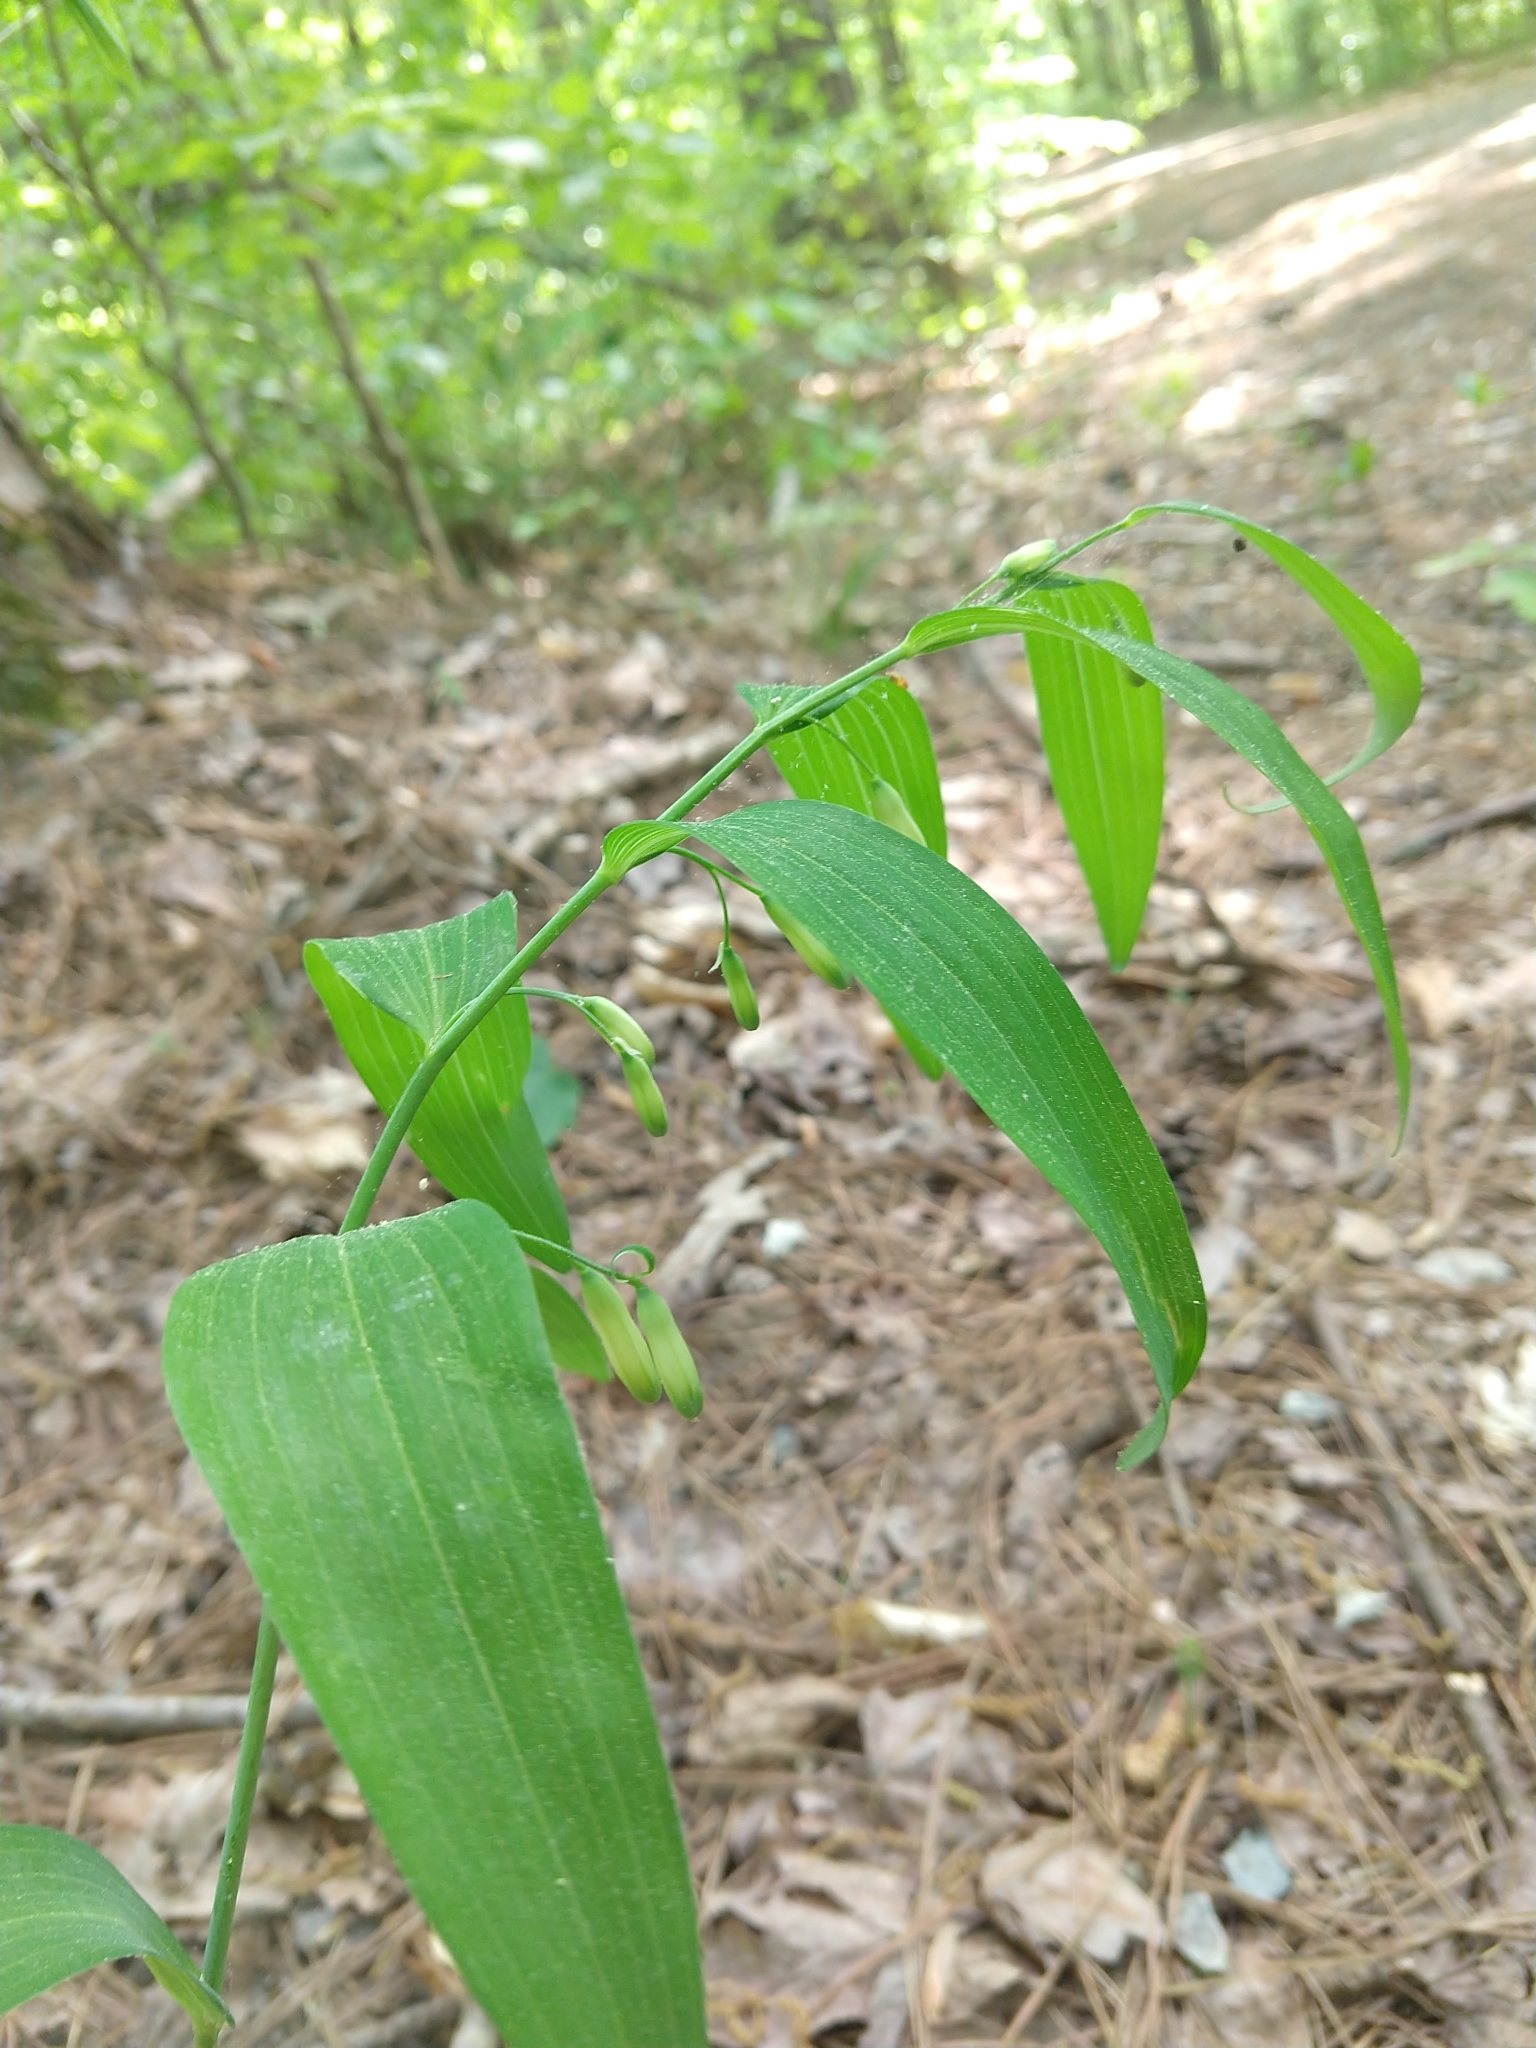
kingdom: Plantae
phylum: Tracheophyta
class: Liliopsida
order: Asparagales
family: Asparagaceae
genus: Polygonatum
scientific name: Polygonatum biflorum
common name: American solomon's-seal
